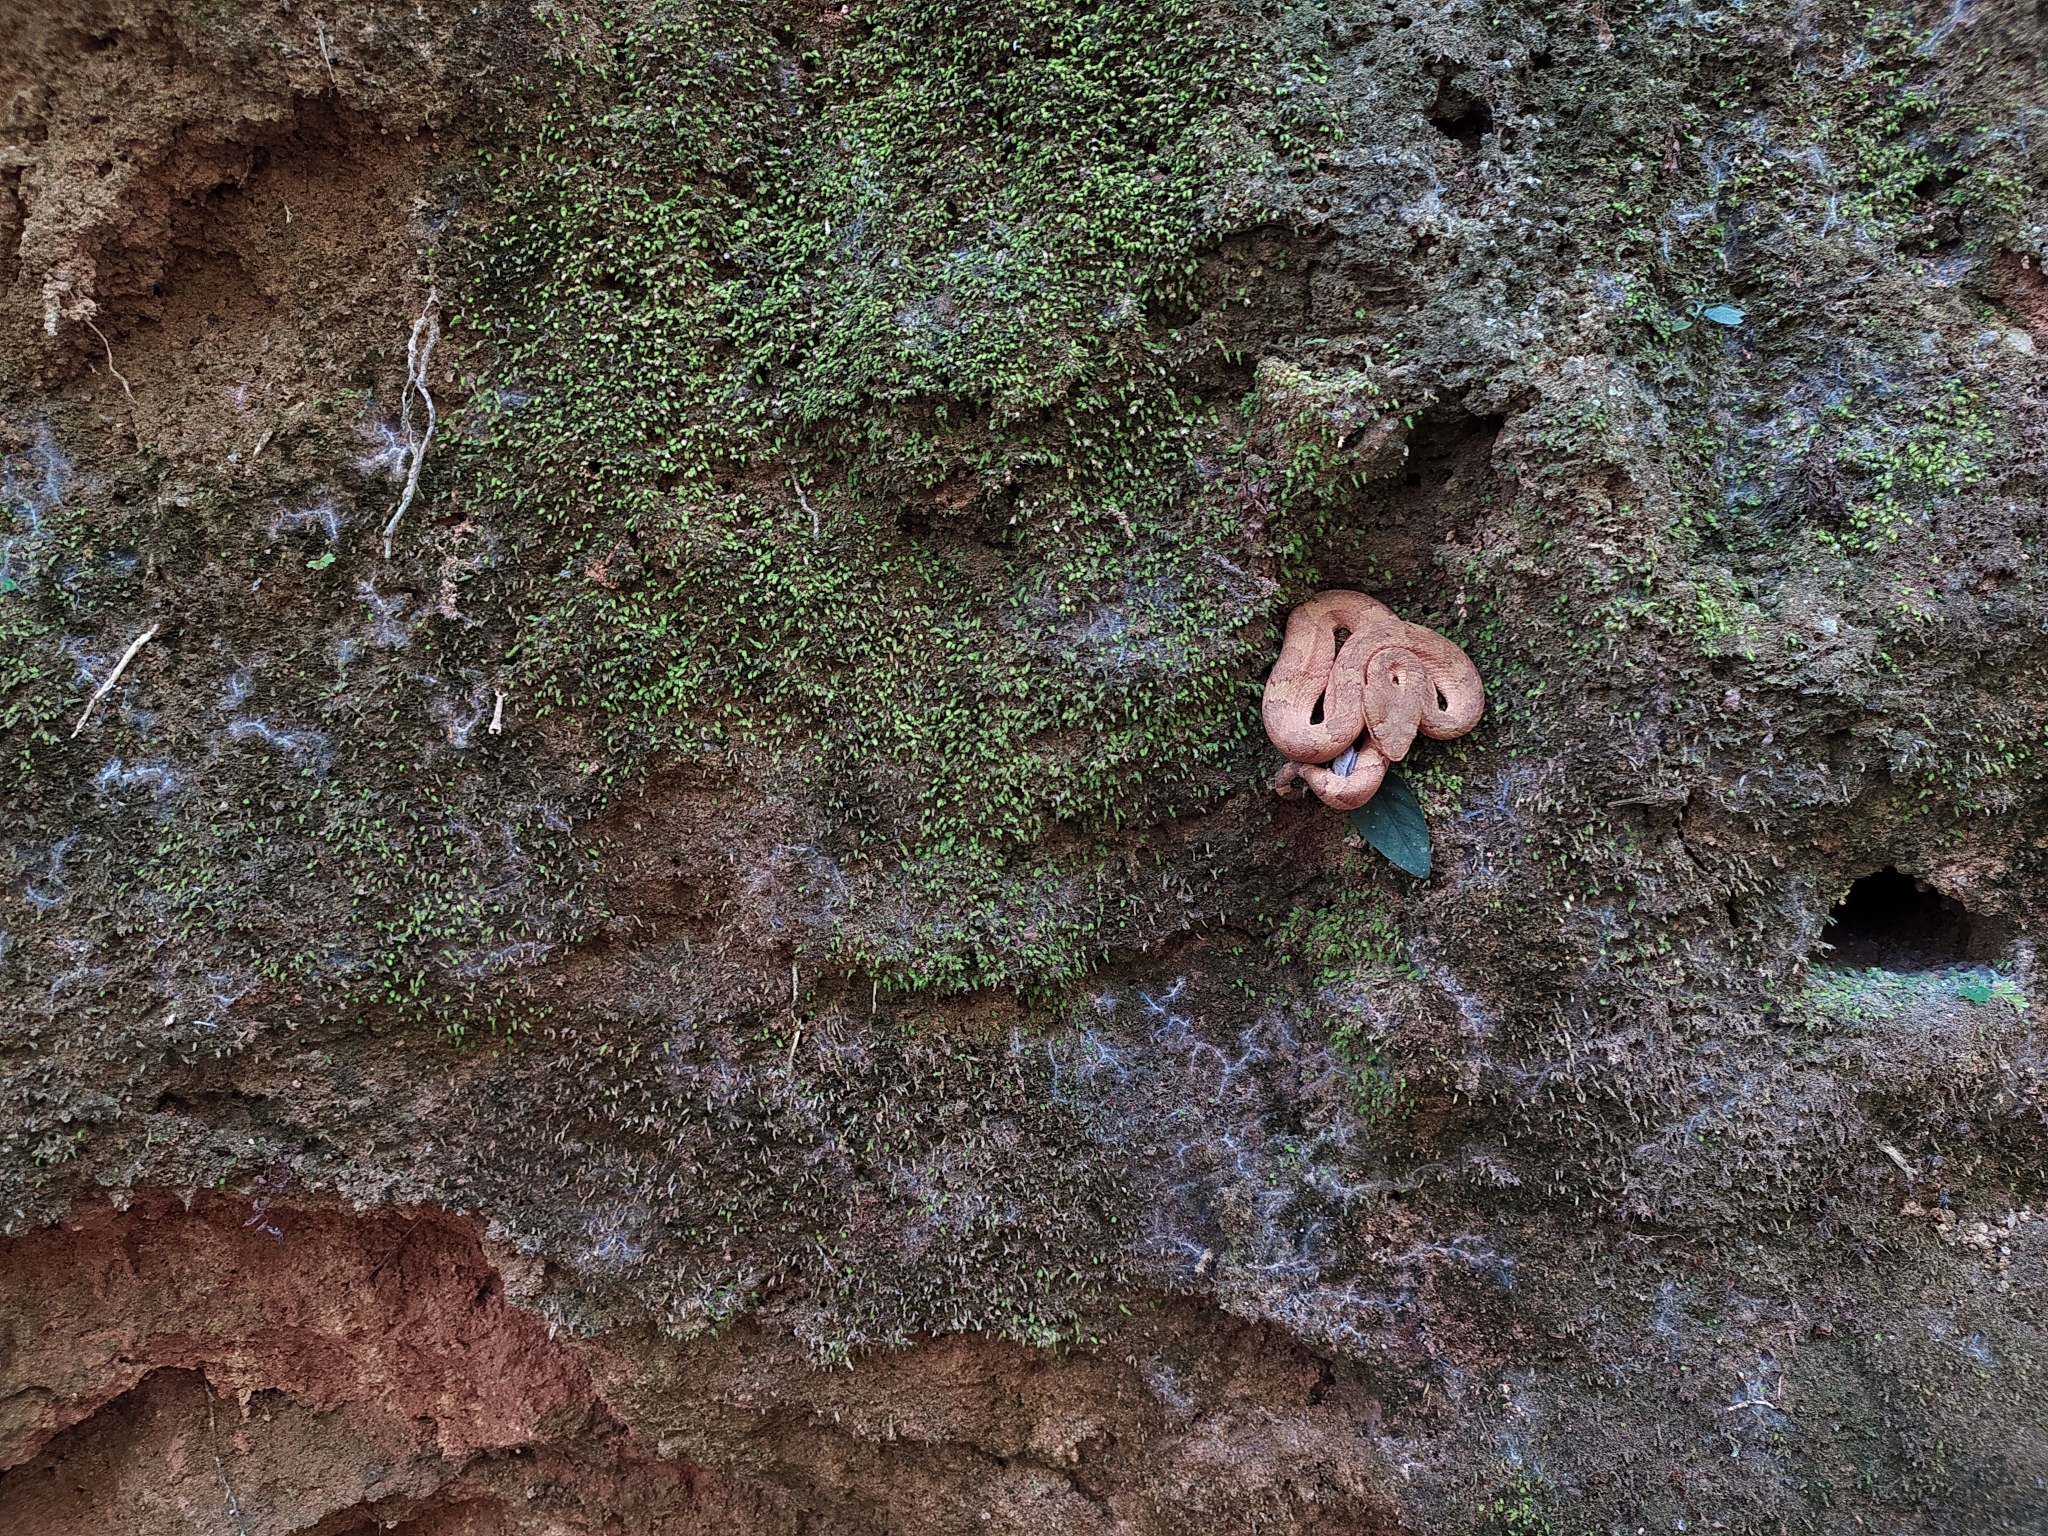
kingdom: Animalia
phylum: Chordata
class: Squamata
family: Viperidae
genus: Craspedocephalus
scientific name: Craspedocephalus malabaricus
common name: Malabarian pit viper
